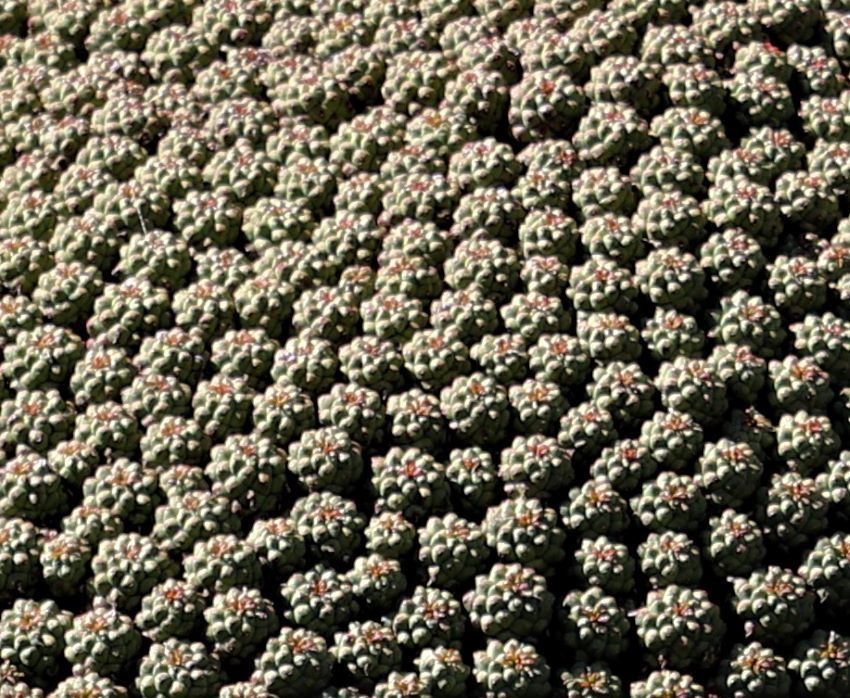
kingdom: Plantae
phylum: Tracheophyta
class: Magnoliopsida
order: Malpighiales
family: Euphorbiaceae
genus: Euphorbia
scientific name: Euphorbia clavarioides
